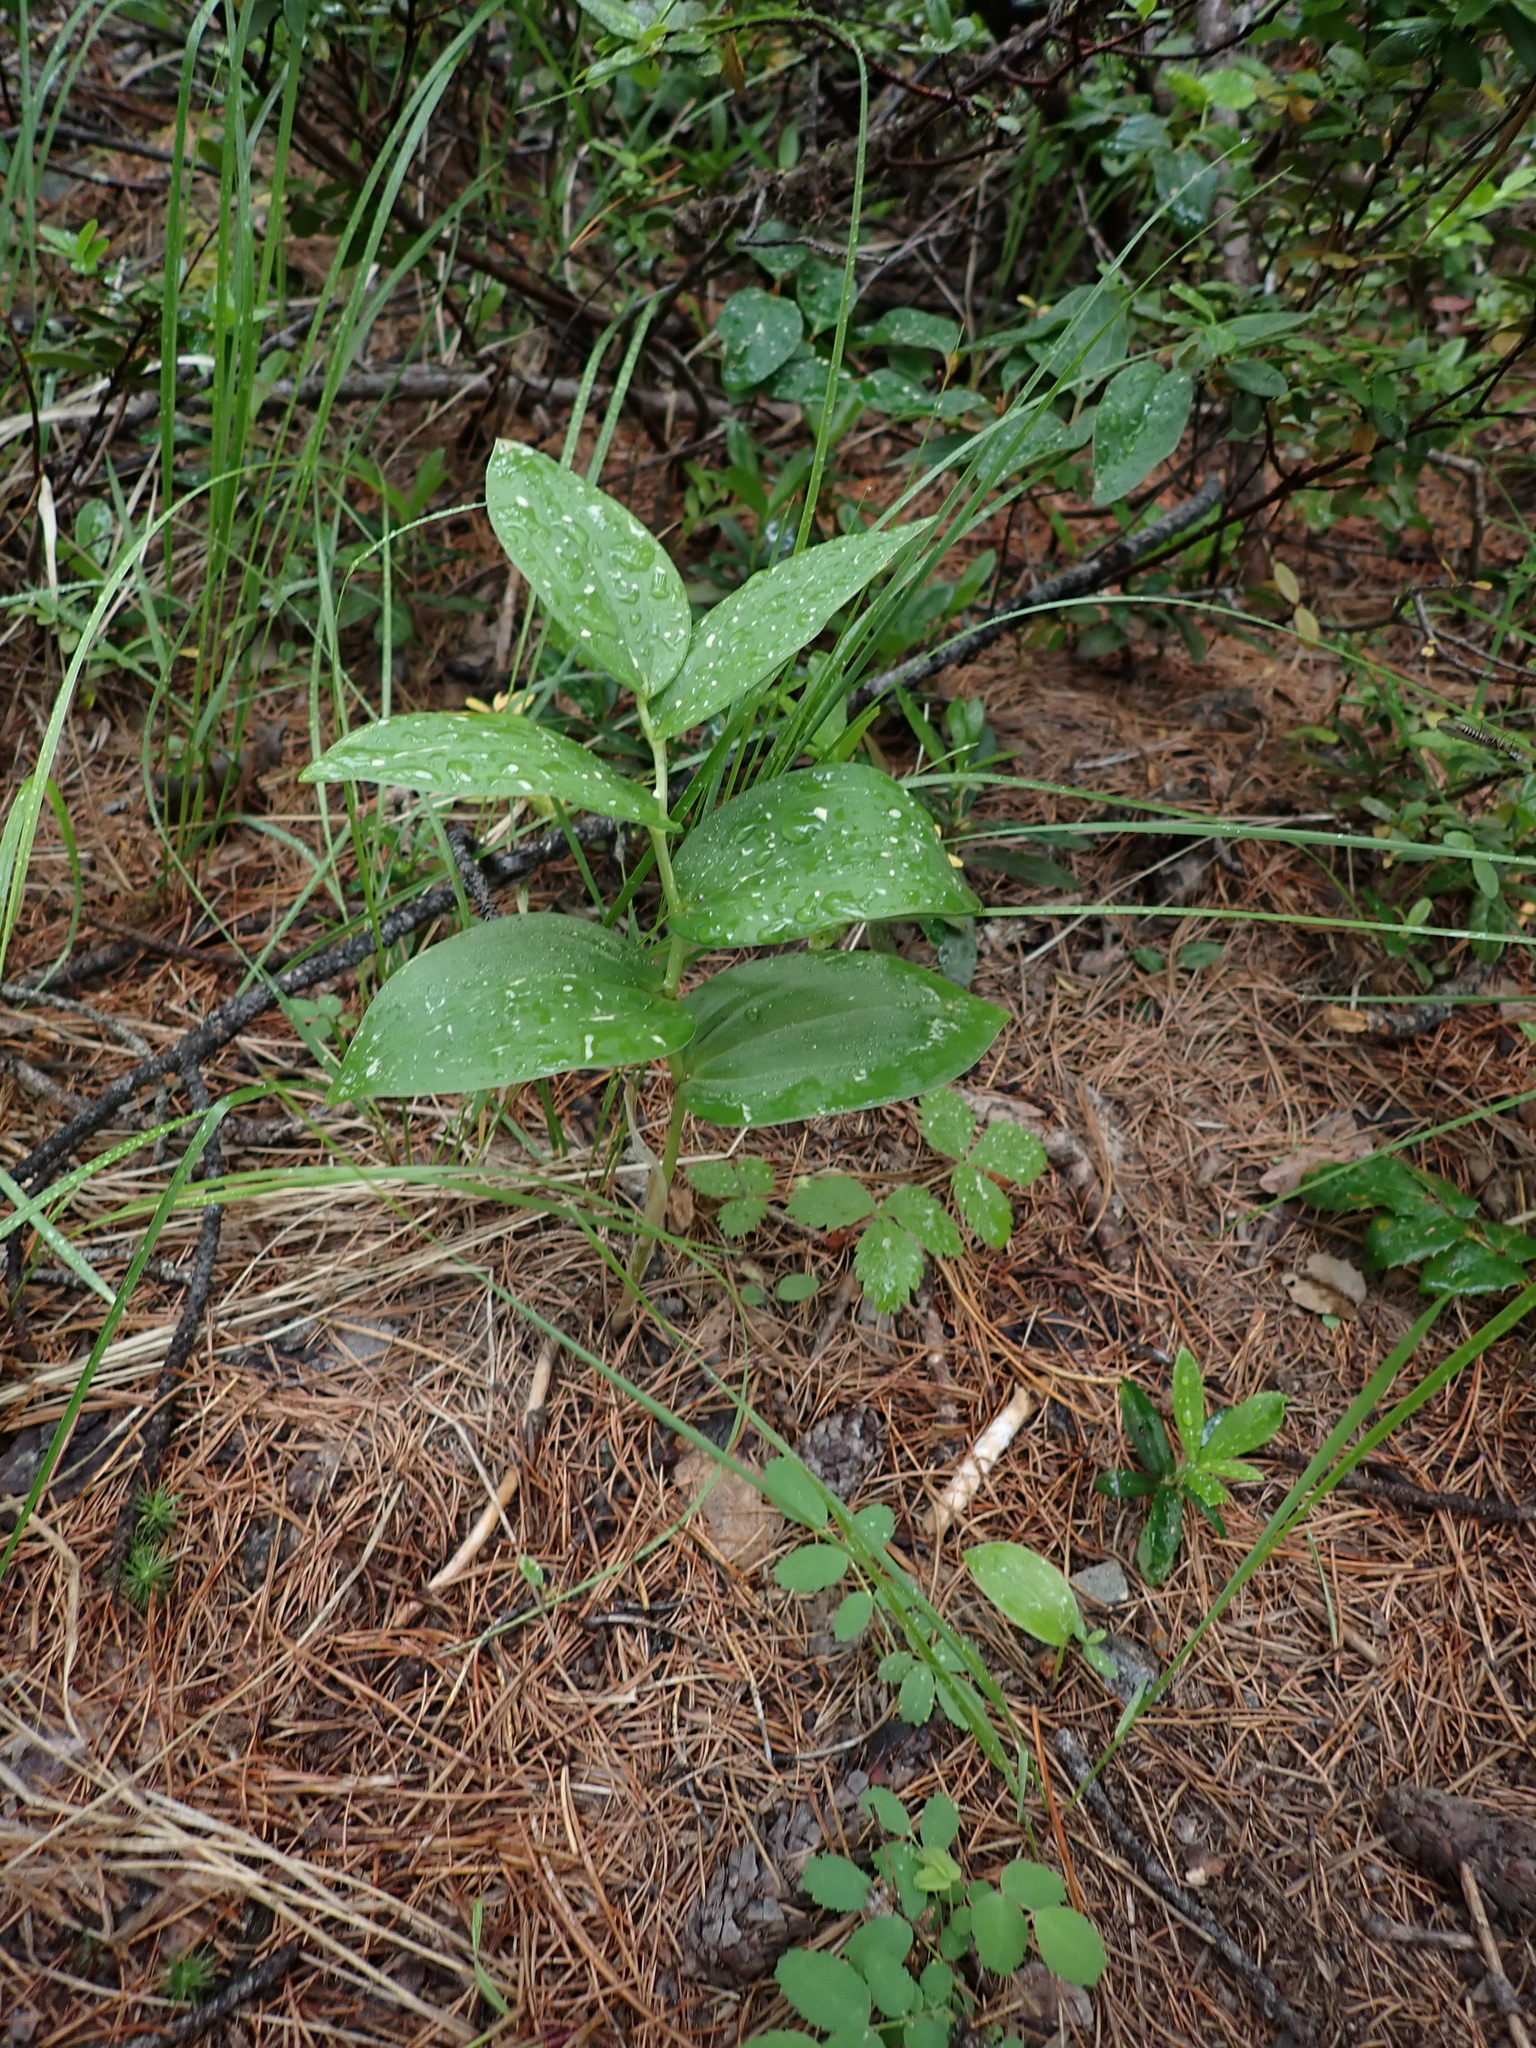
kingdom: Plantae
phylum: Tracheophyta
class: Liliopsida
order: Asparagales
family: Asparagaceae
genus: Maianthemum
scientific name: Maianthemum racemosum
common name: False spikenard
